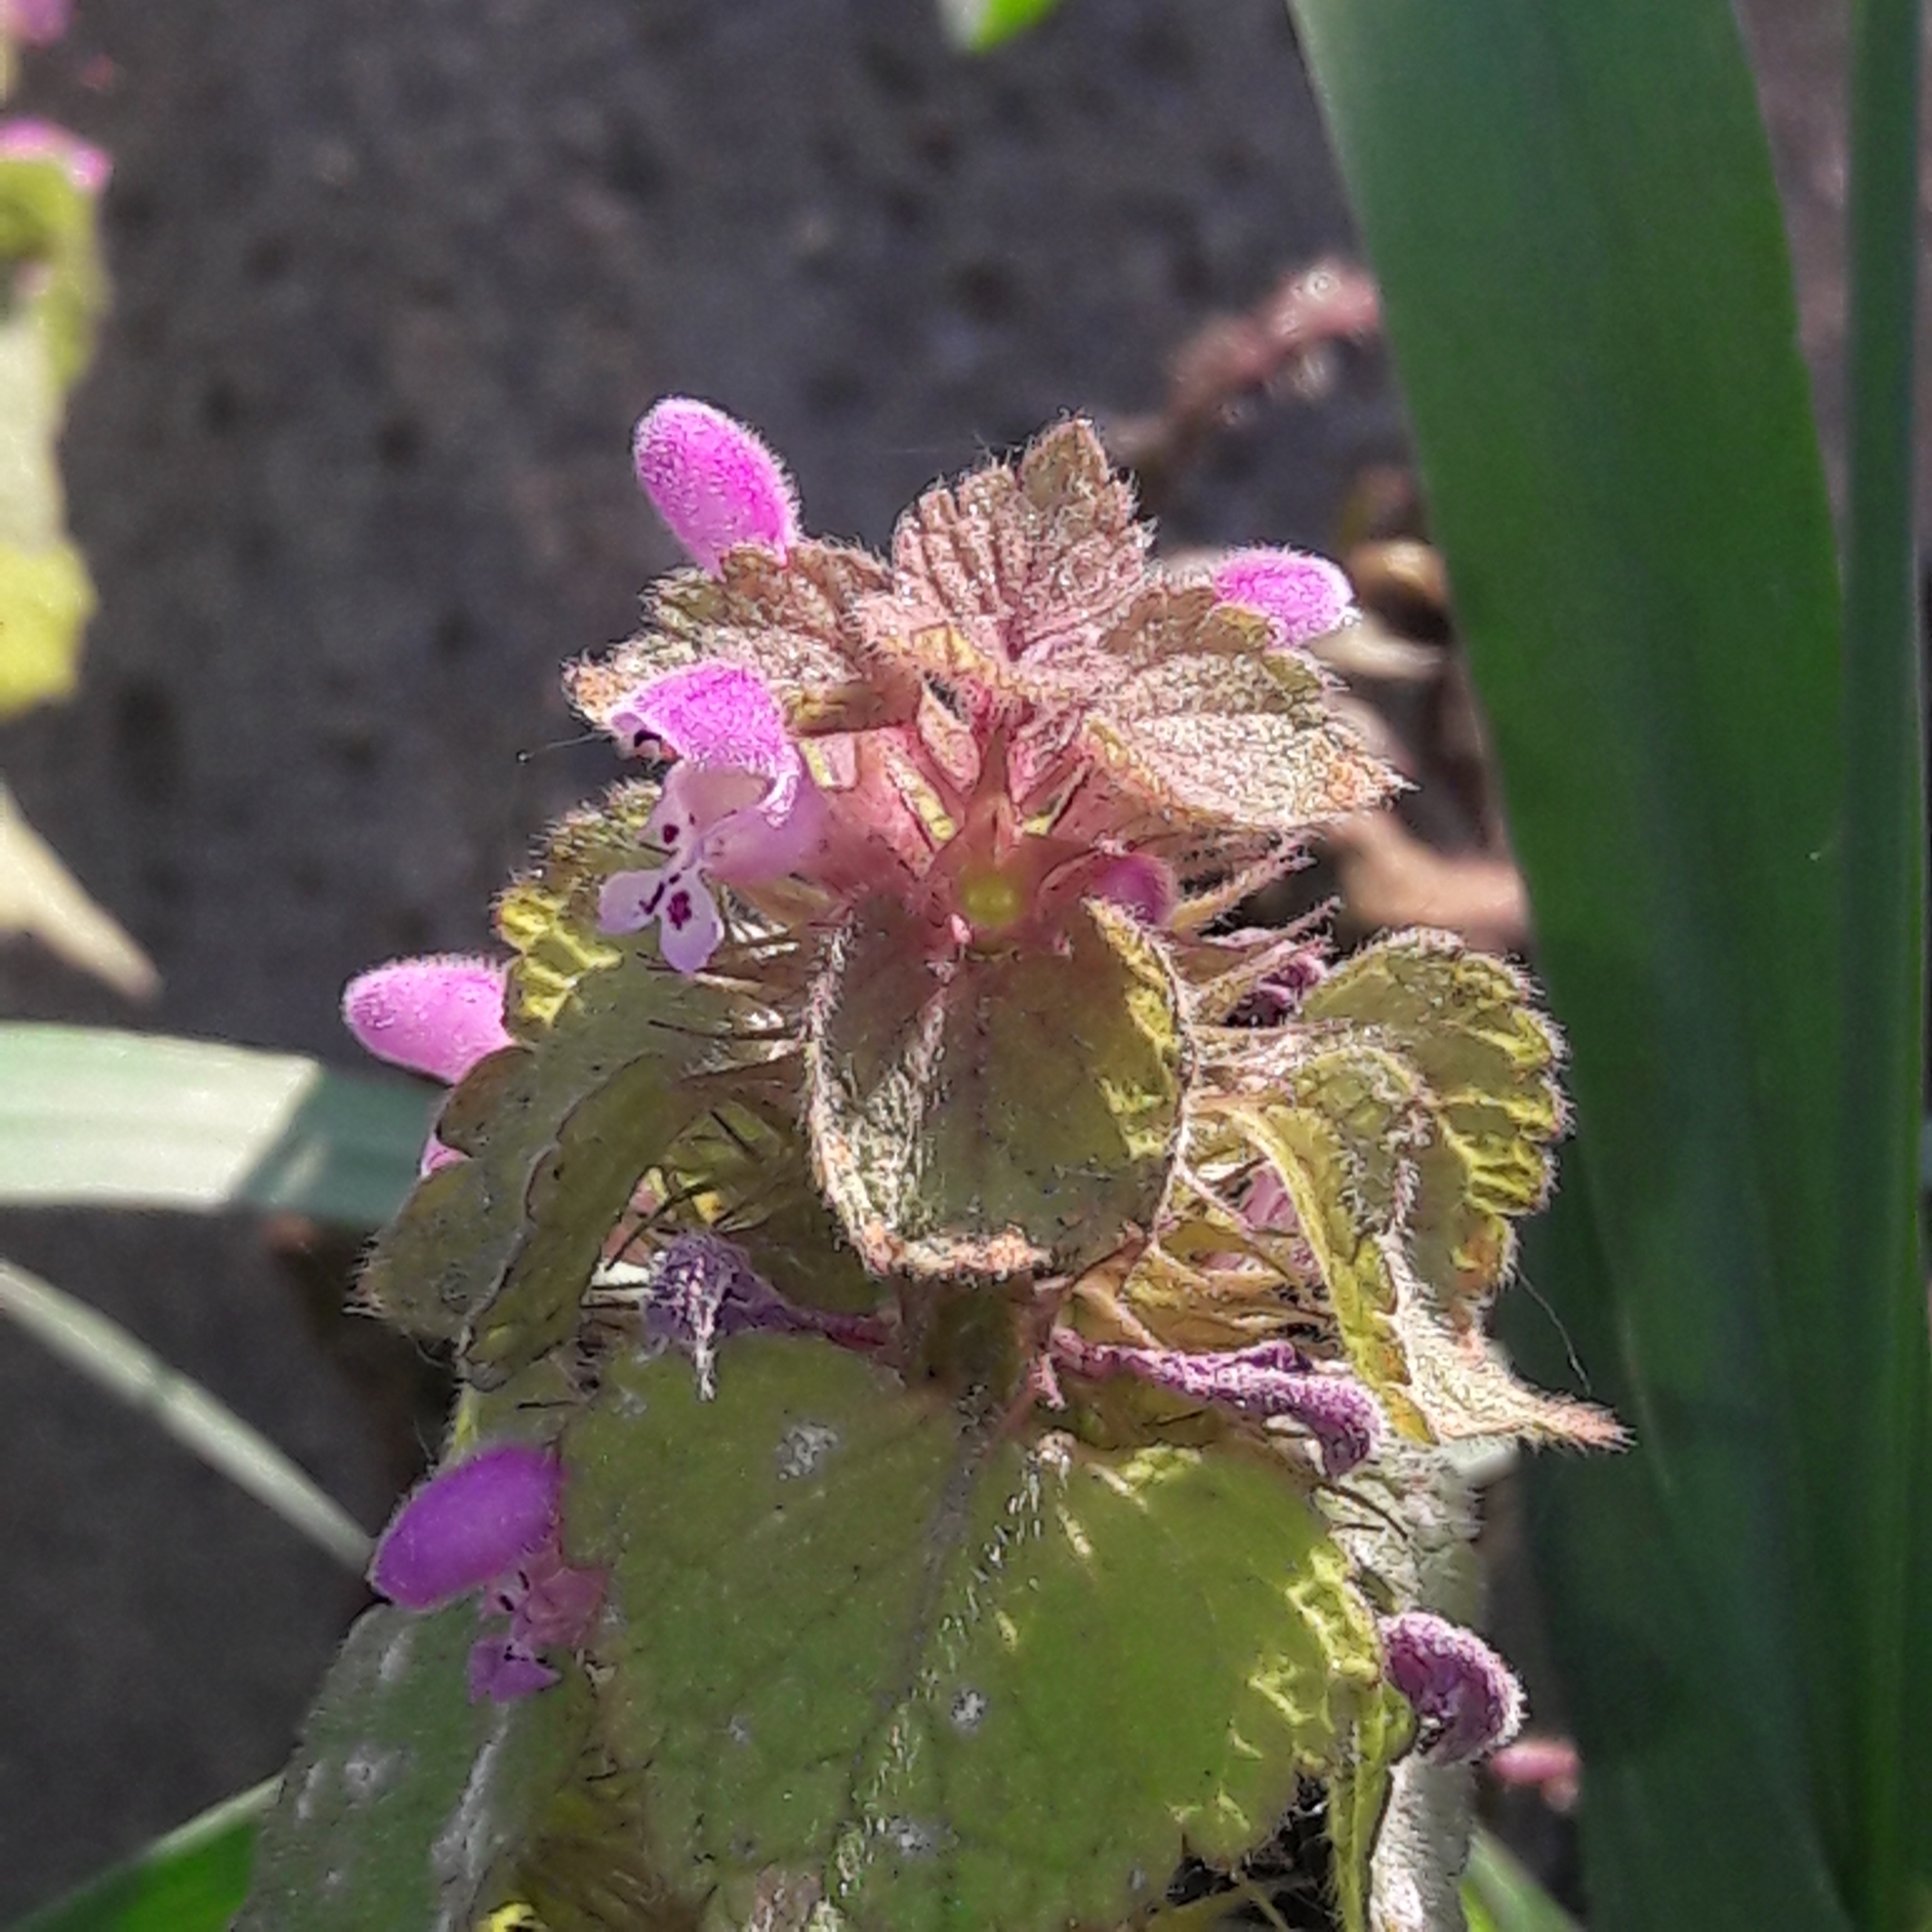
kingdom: Plantae
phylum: Tracheophyta
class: Magnoliopsida
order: Lamiales
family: Lamiaceae
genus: Lamium
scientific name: Lamium purpureum
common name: Red dead-nettle
